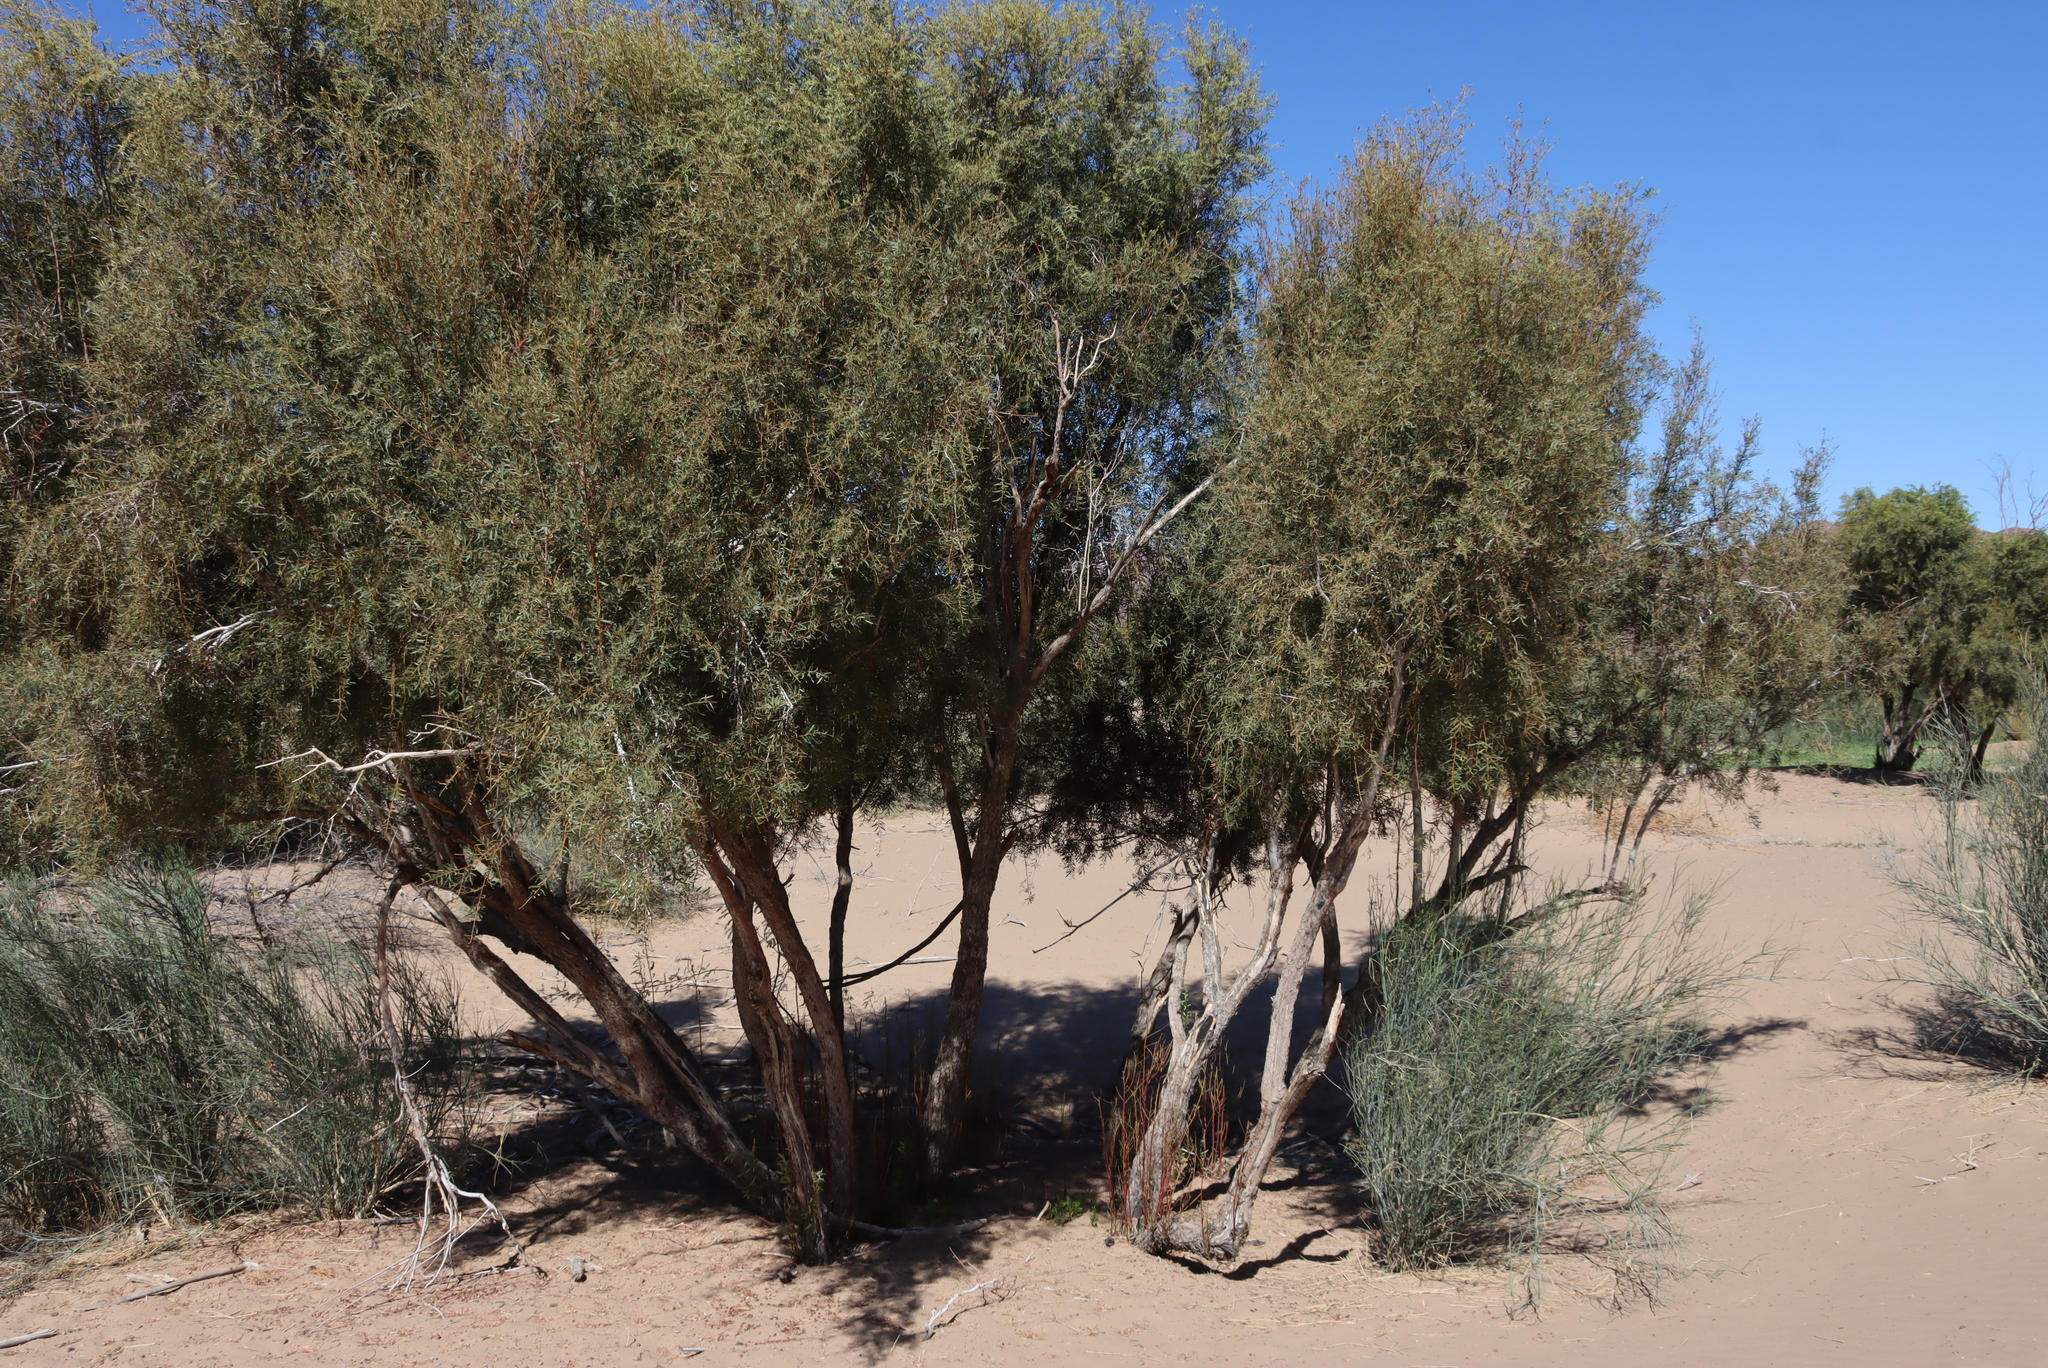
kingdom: Plantae
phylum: Tracheophyta
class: Magnoliopsida
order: Ericales
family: Ebenaceae
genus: Euclea
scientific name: Euclea pseudebenus
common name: Black ebony
